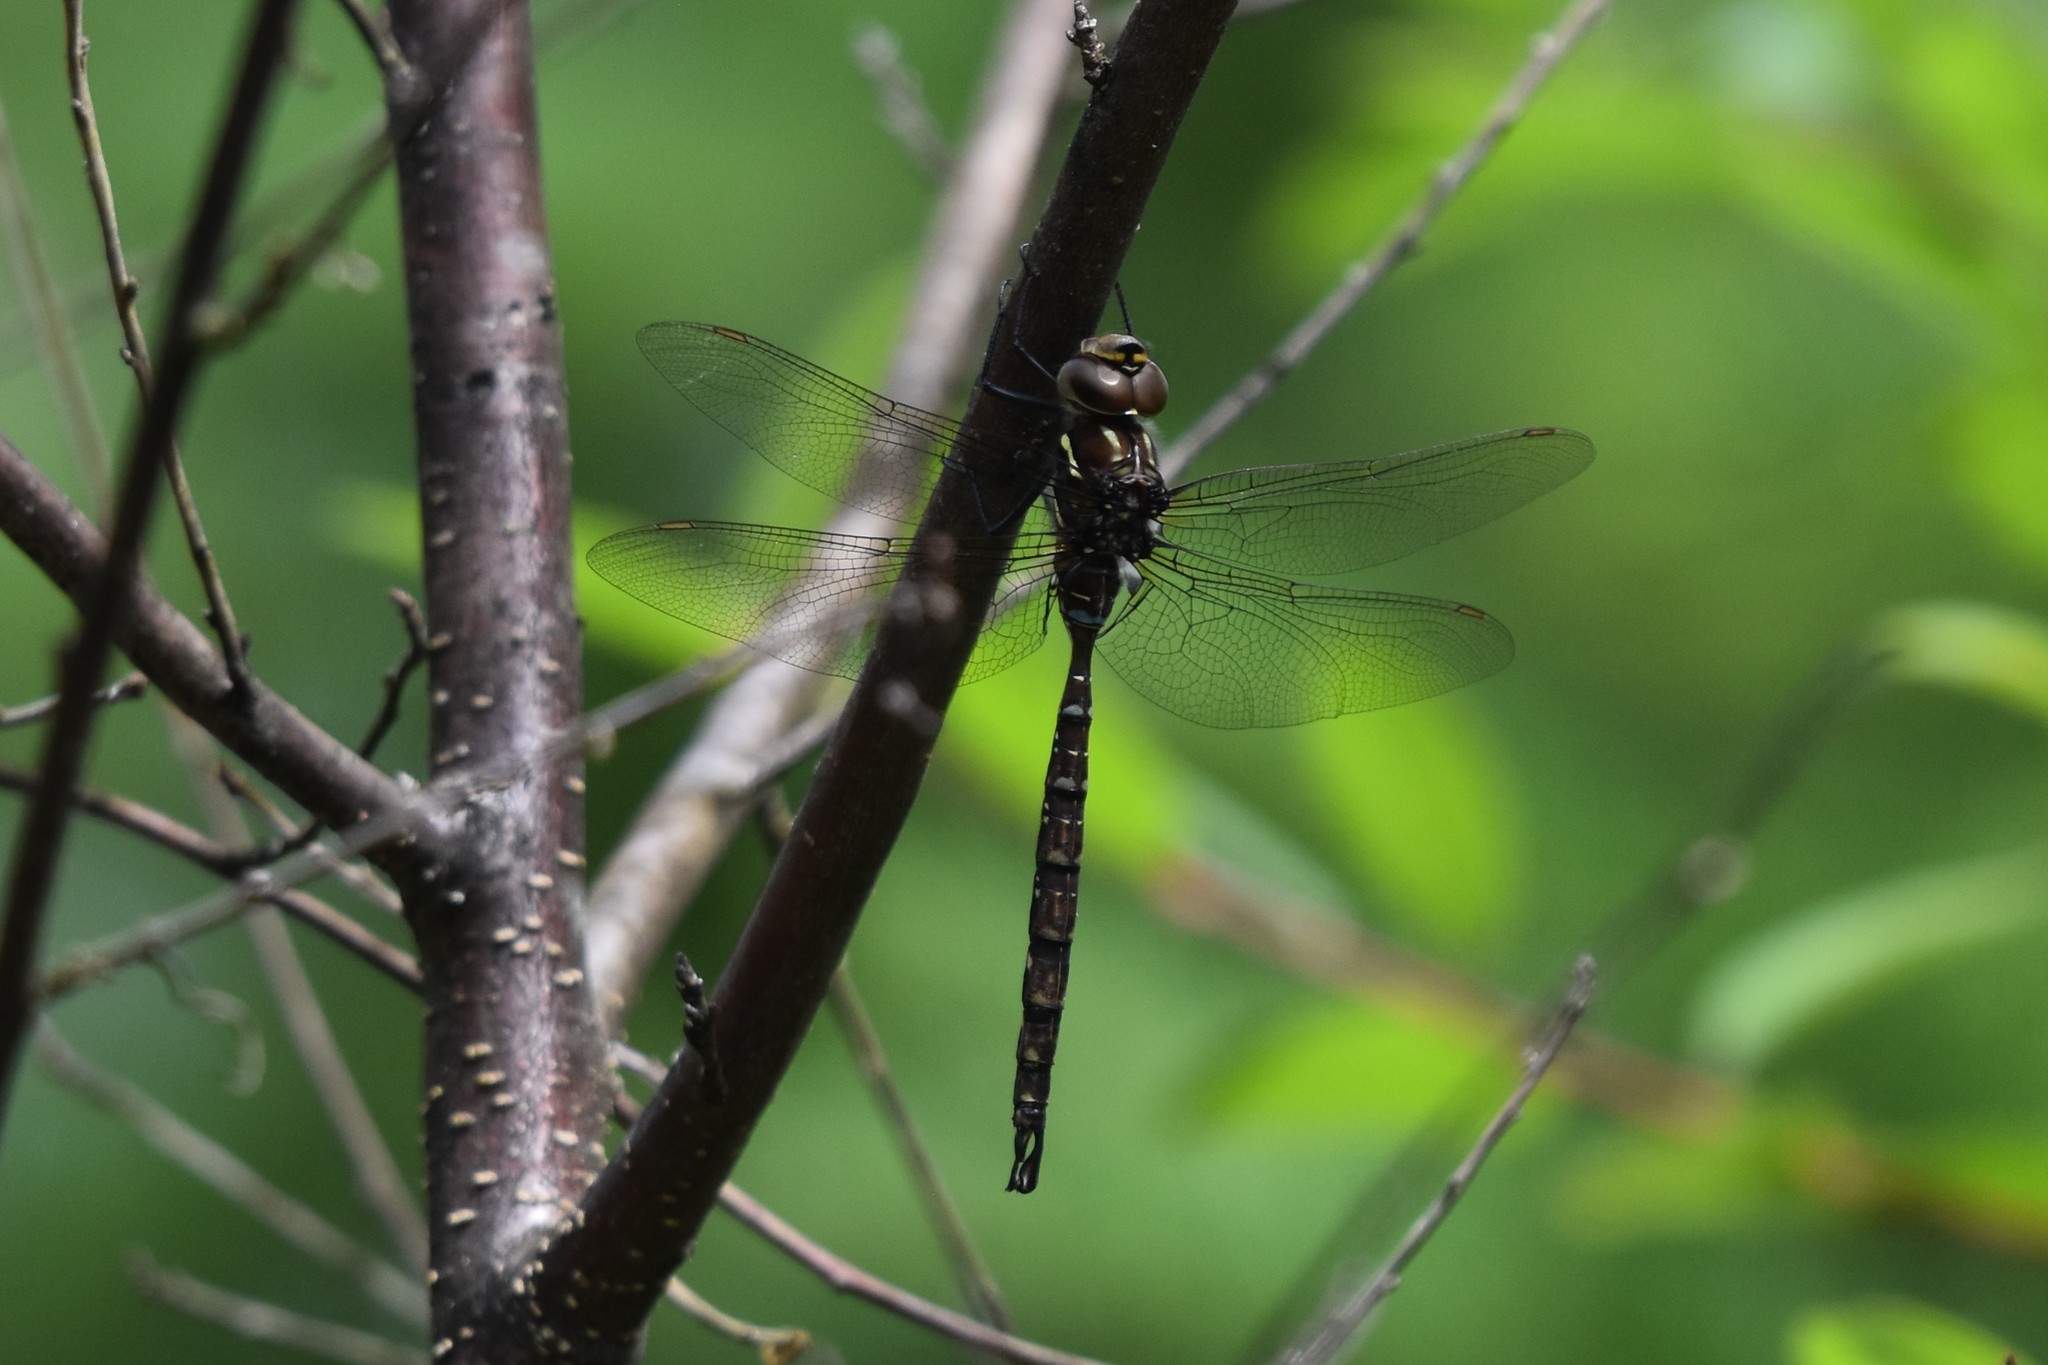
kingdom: Animalia
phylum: Arthropoda
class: Insecta
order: Odonata
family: Aeshnidae
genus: Aeshna
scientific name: Aeshna umbrosa
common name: Shadow darner
